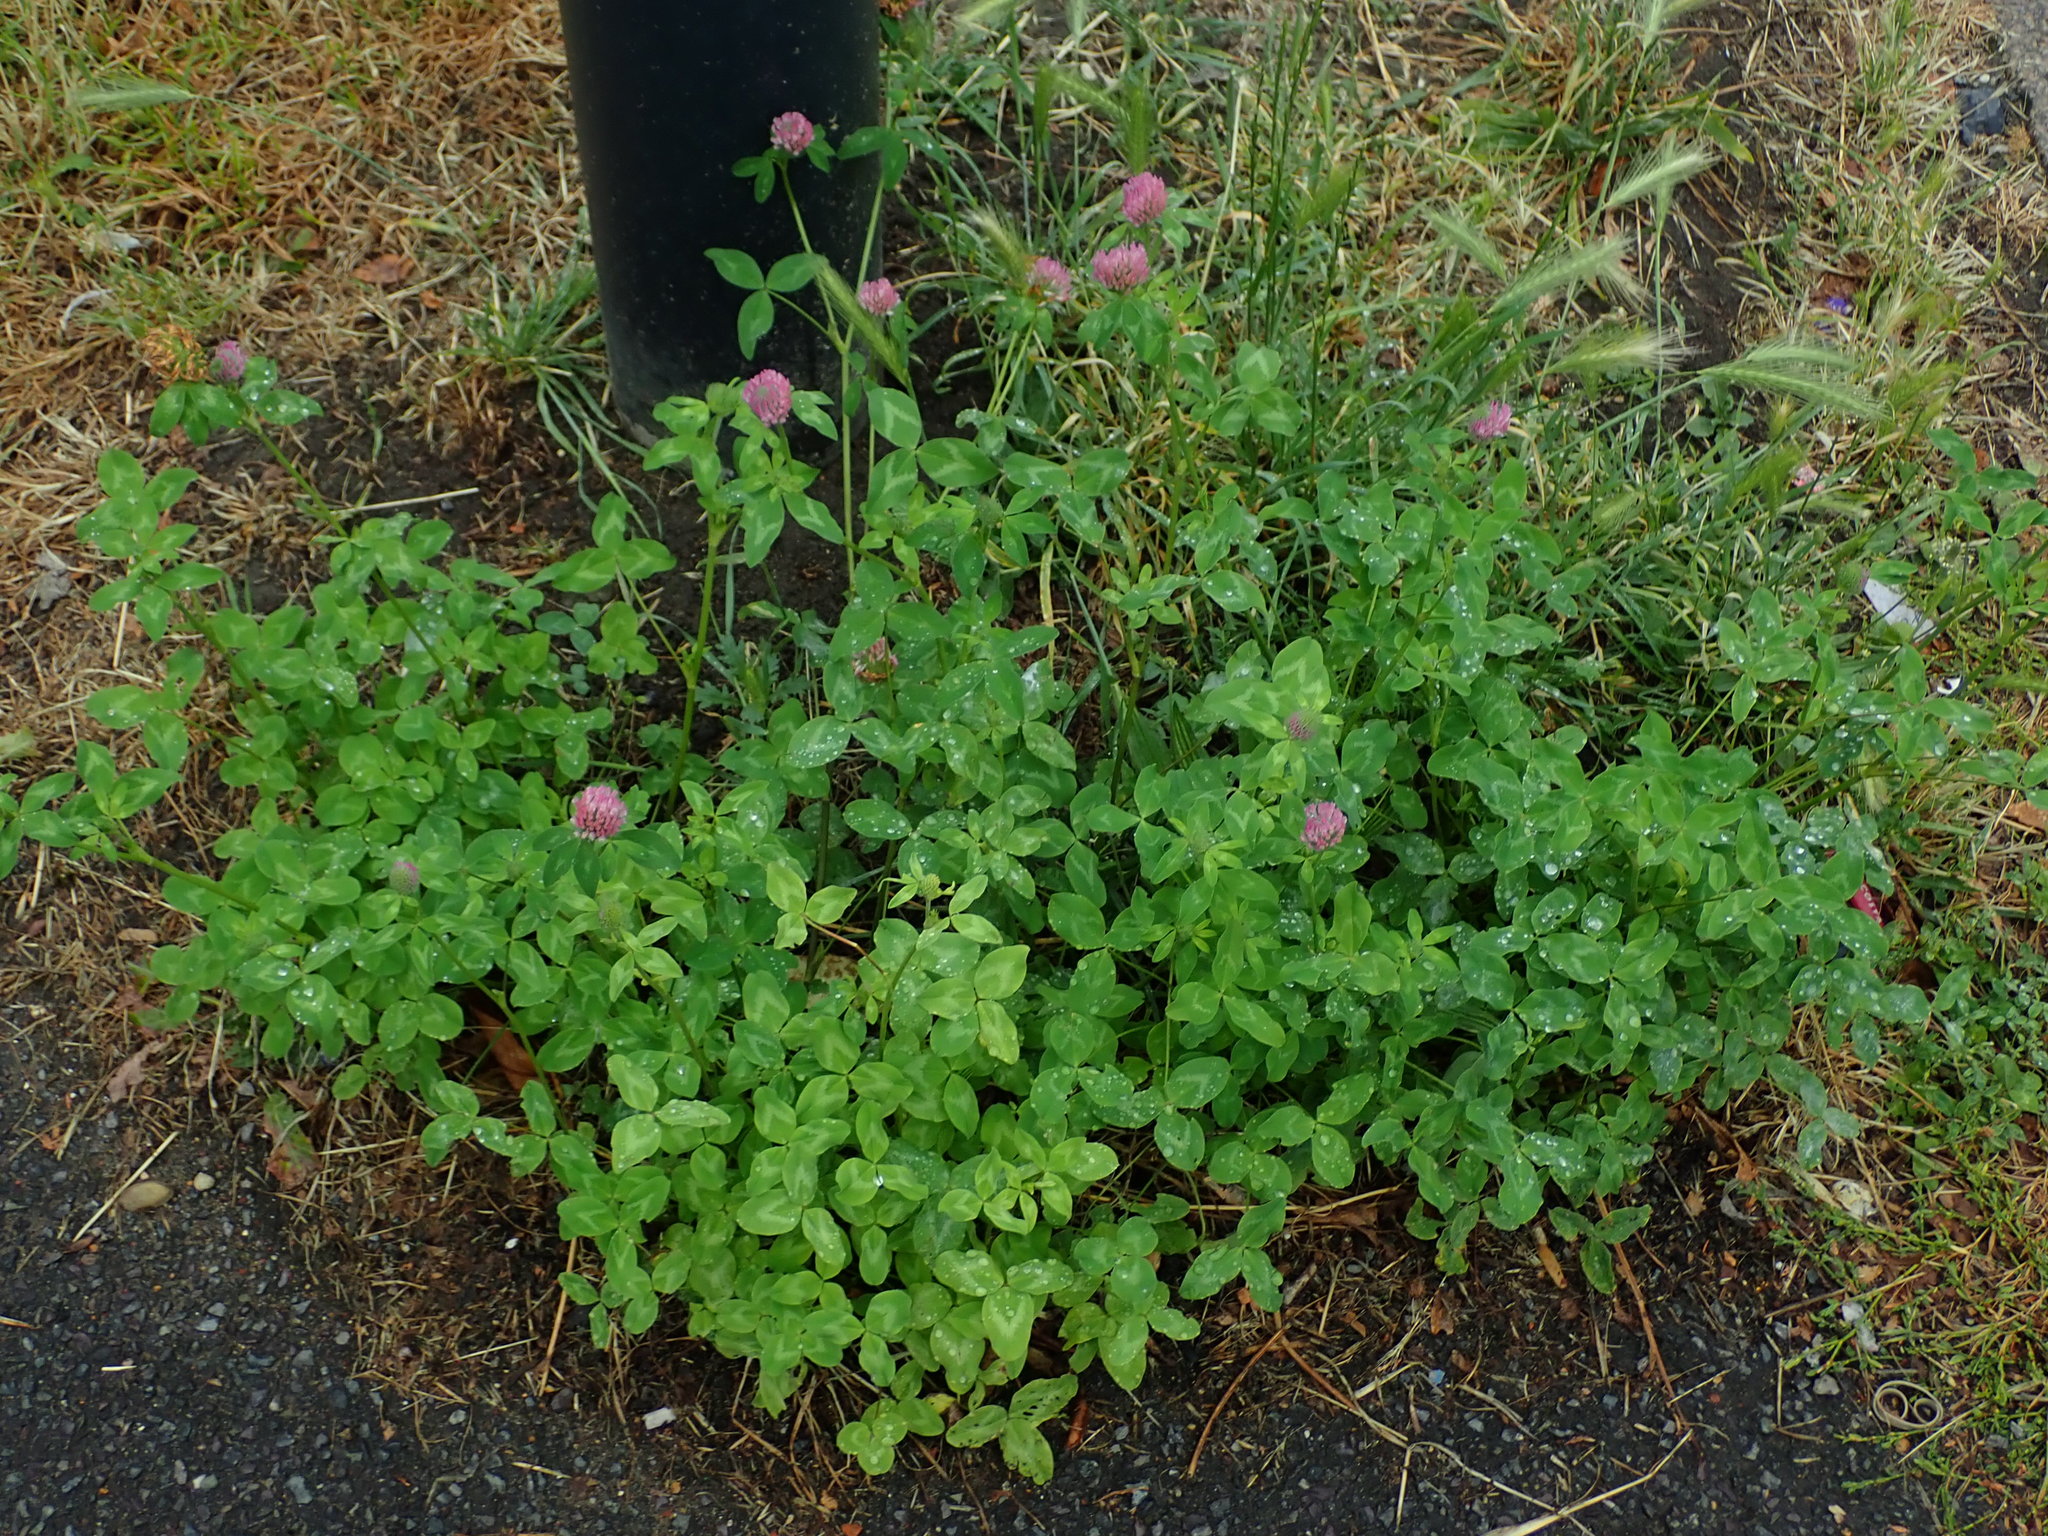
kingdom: Plantae
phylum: Tracheophyta
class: Magnoliopsida
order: Fabales
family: Fabaceae
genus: Trifolium
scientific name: Trifolium pratense
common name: Red clover
